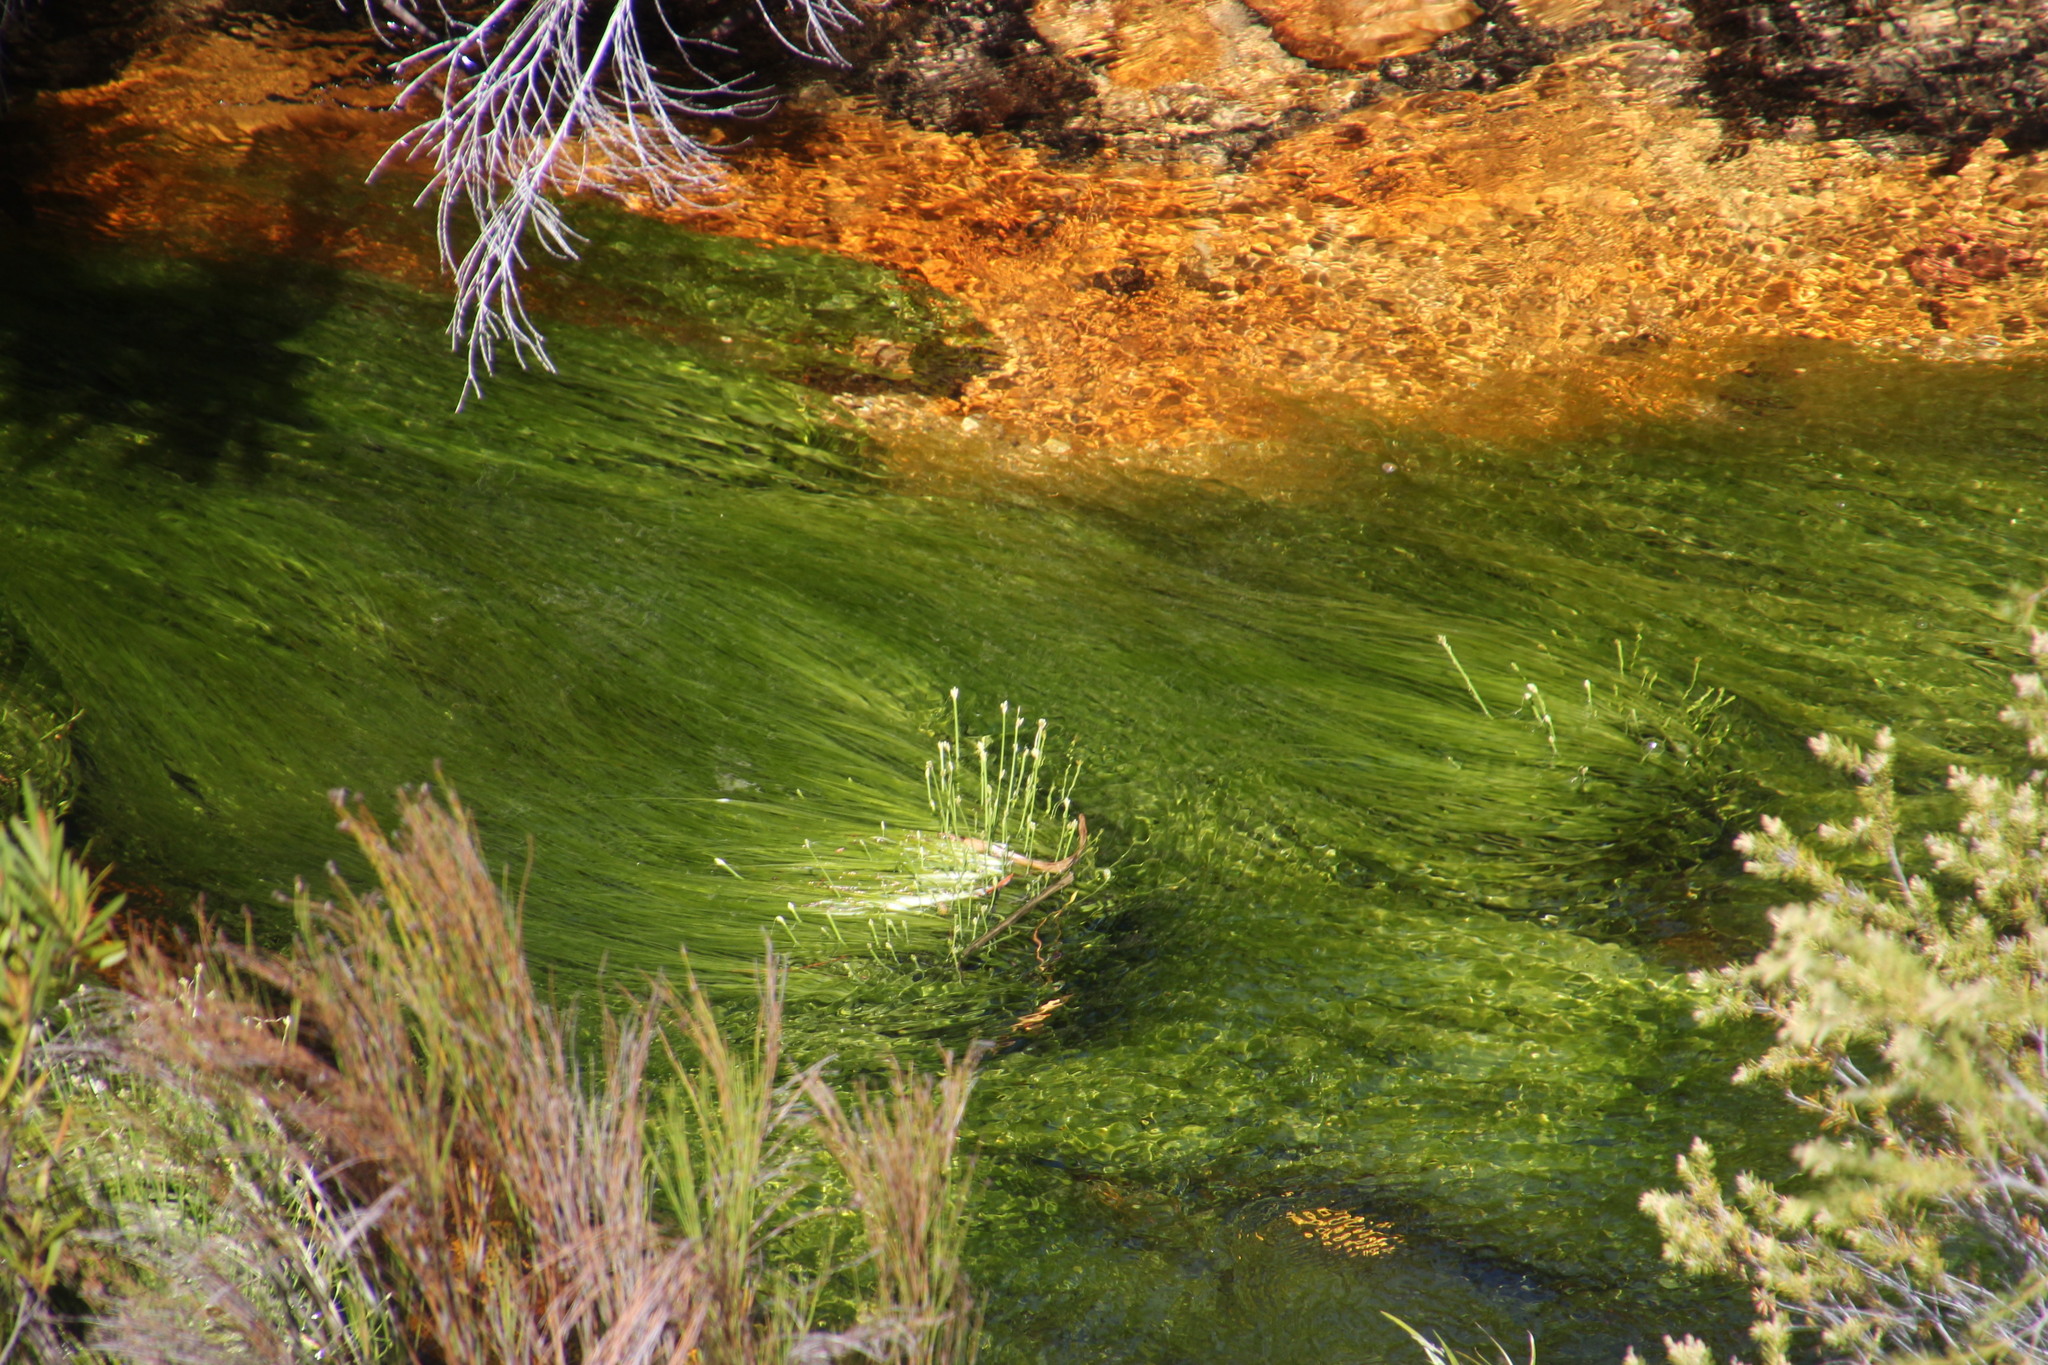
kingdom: Plantae
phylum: Tracheophyta
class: Liliopsida
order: Poales
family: Cyperaceae
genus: Isolepis
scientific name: Isolepis digitata
